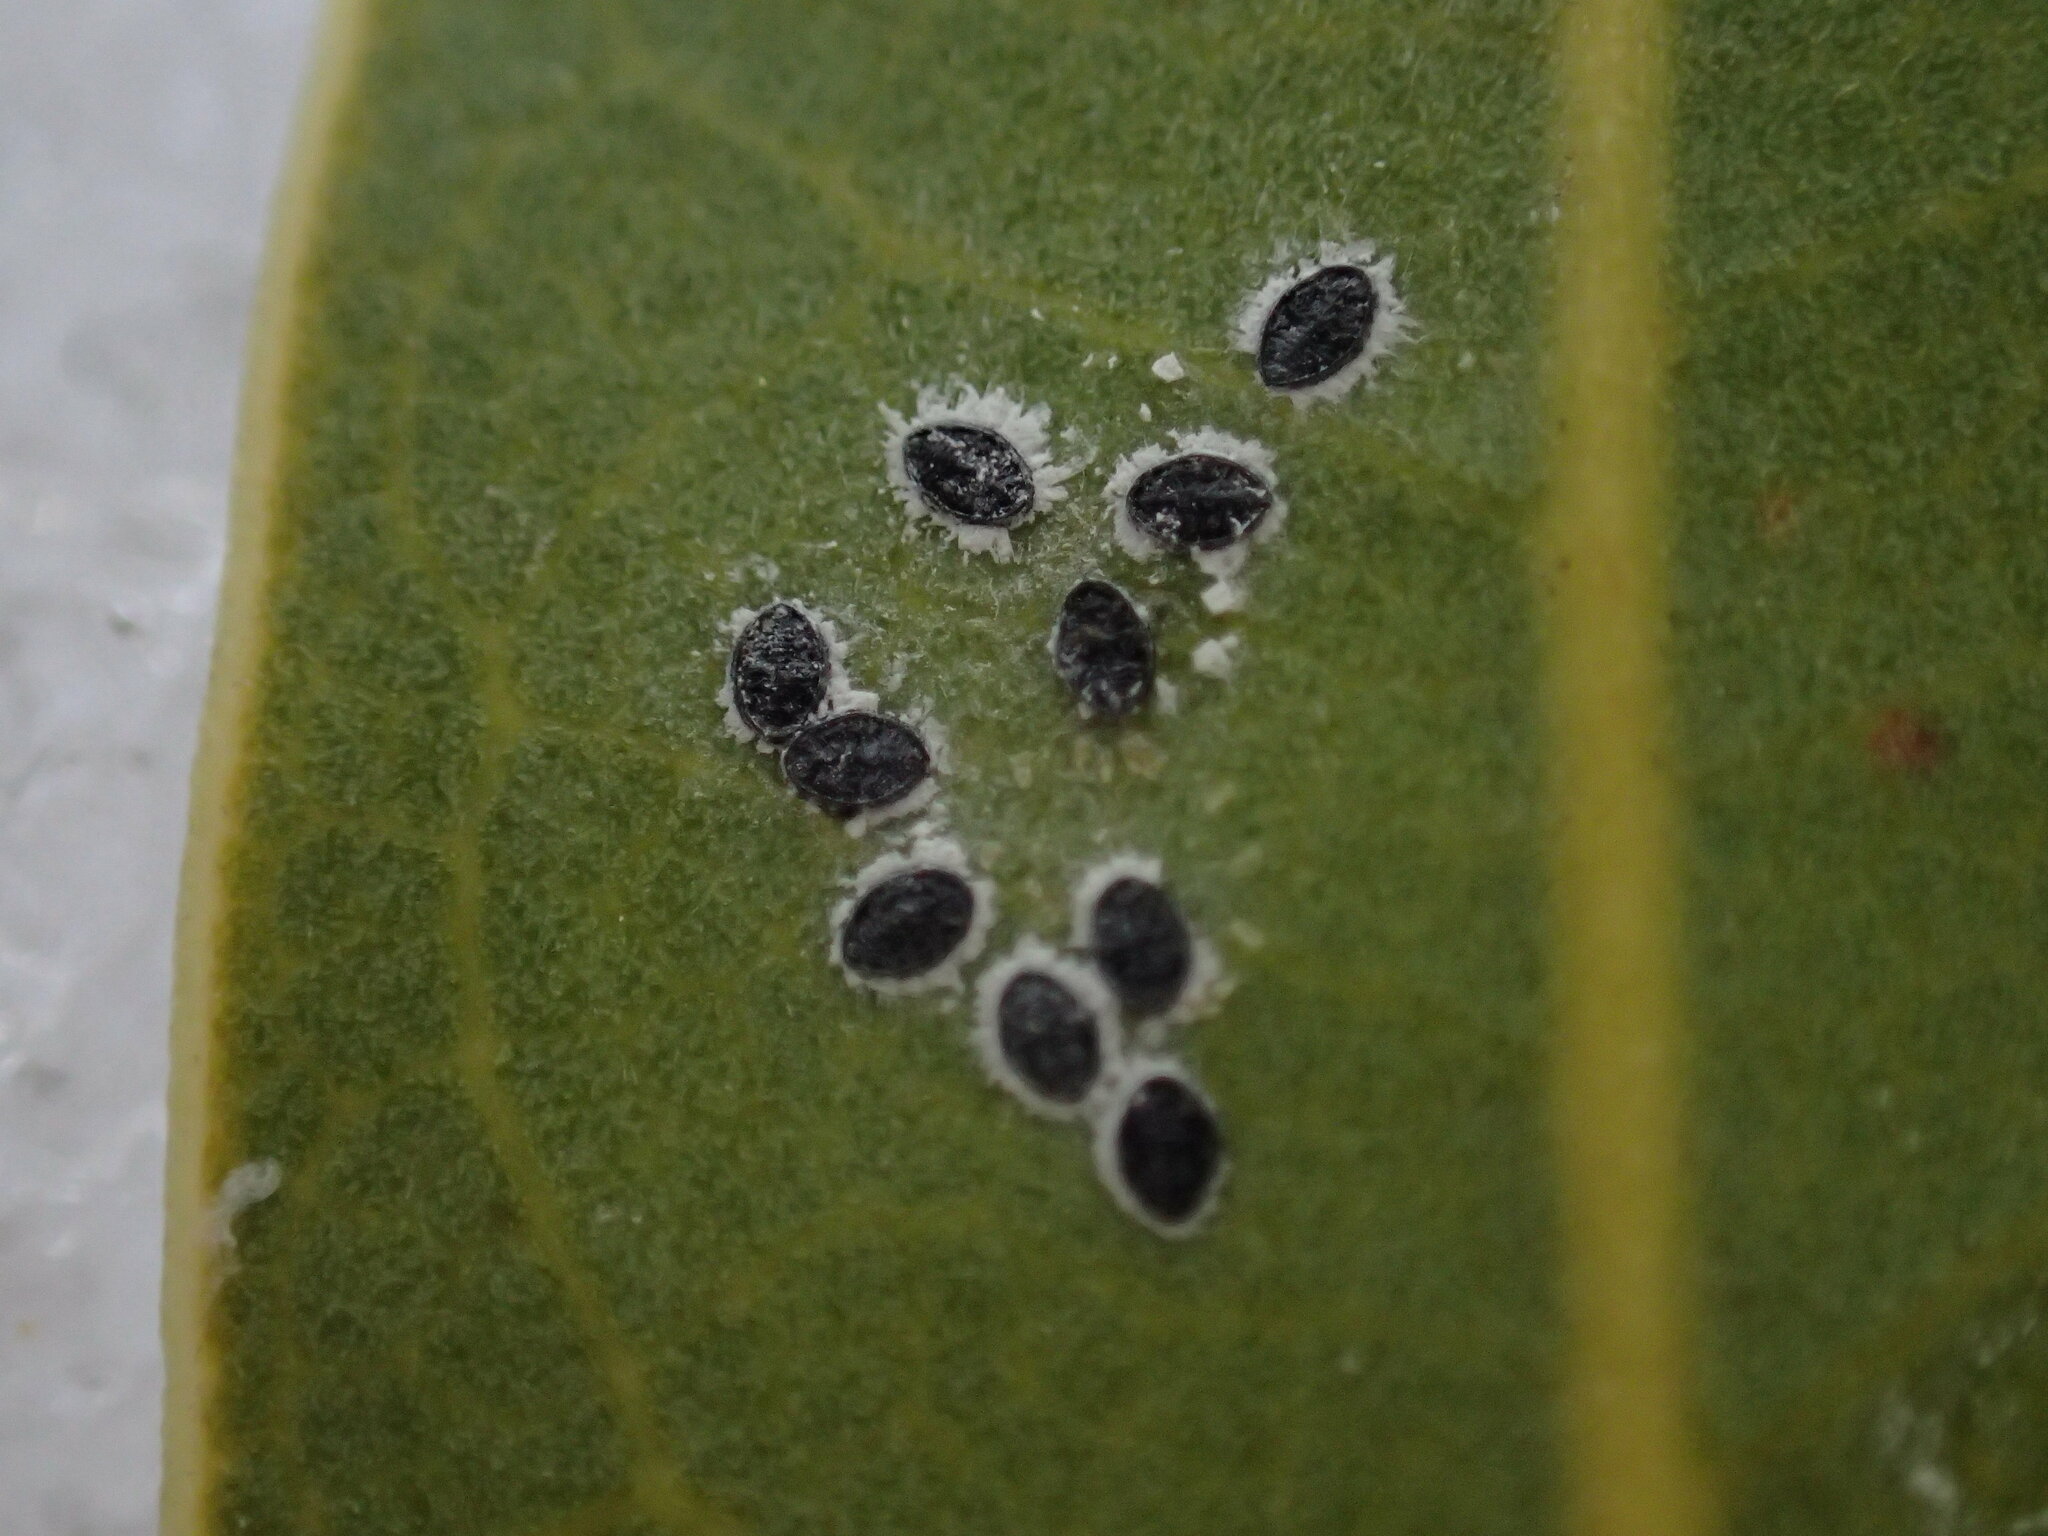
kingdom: Animalia
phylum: Arthropoda
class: Insecta
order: Hemiptera
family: Aleyrodidae
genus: Tetraleurodes
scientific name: Tetraleurodes perileuca
